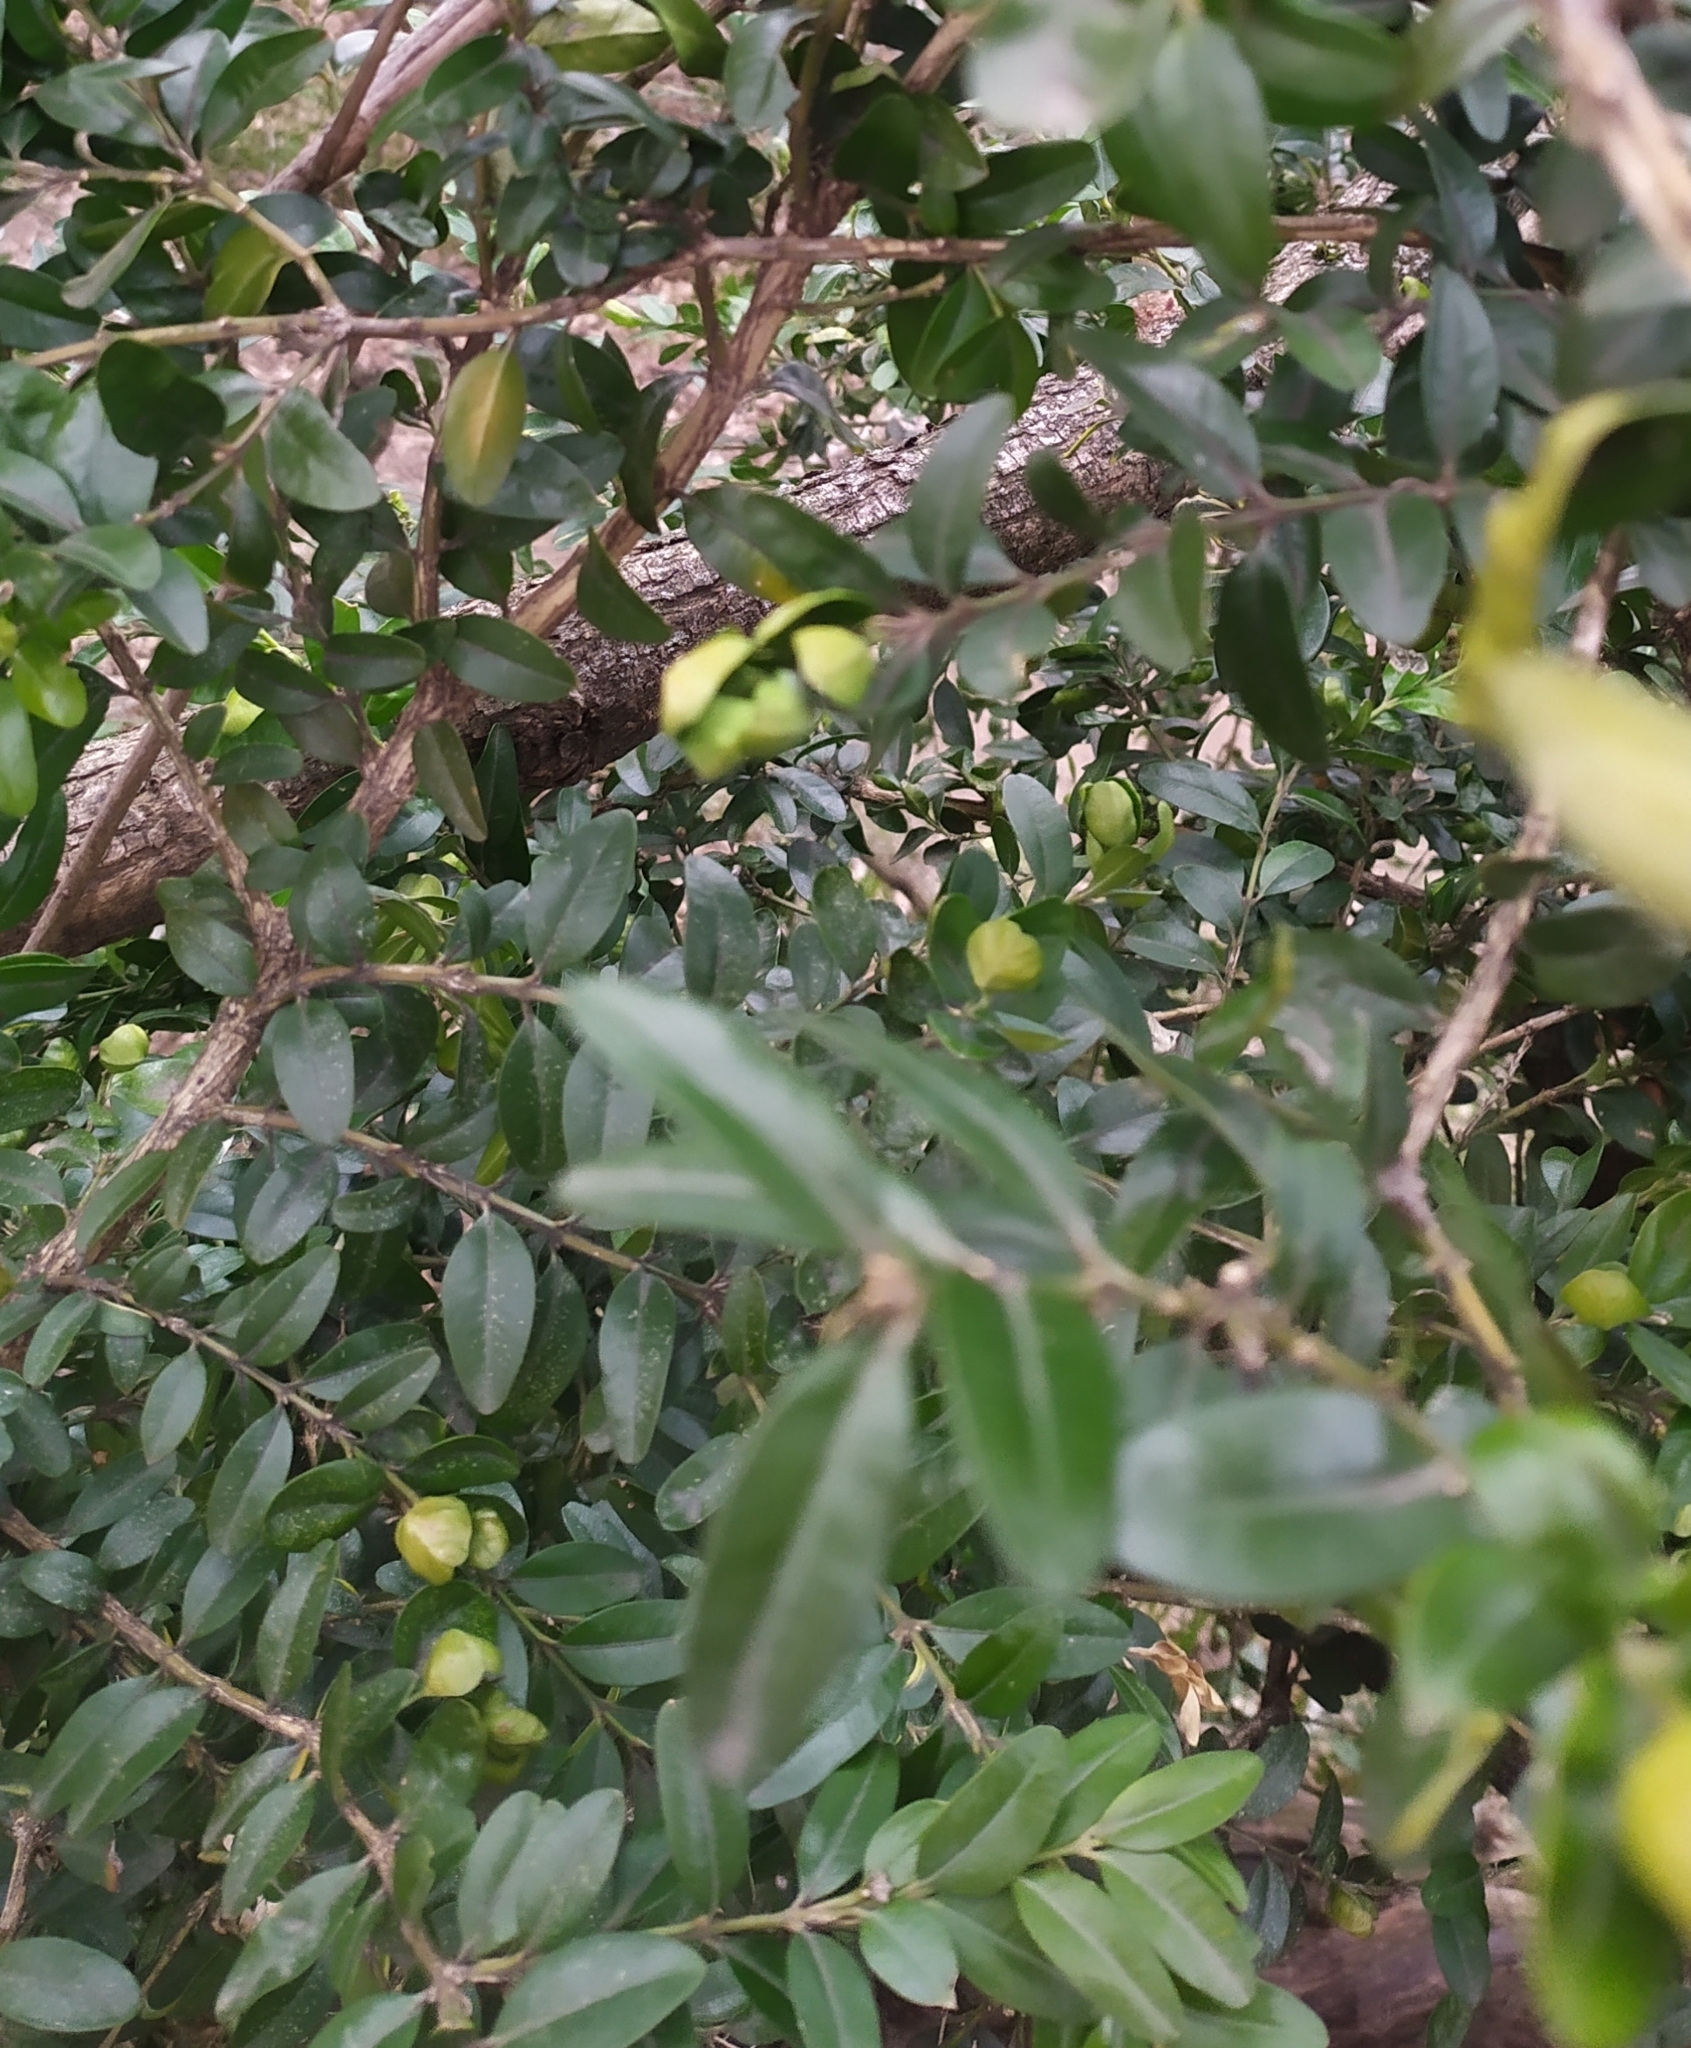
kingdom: Animalia
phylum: Arthropoda
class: Insecta
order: Hemiptera
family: Psyllidae
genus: Psylla
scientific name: Psylla buxi
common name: Boxwood psyllid
